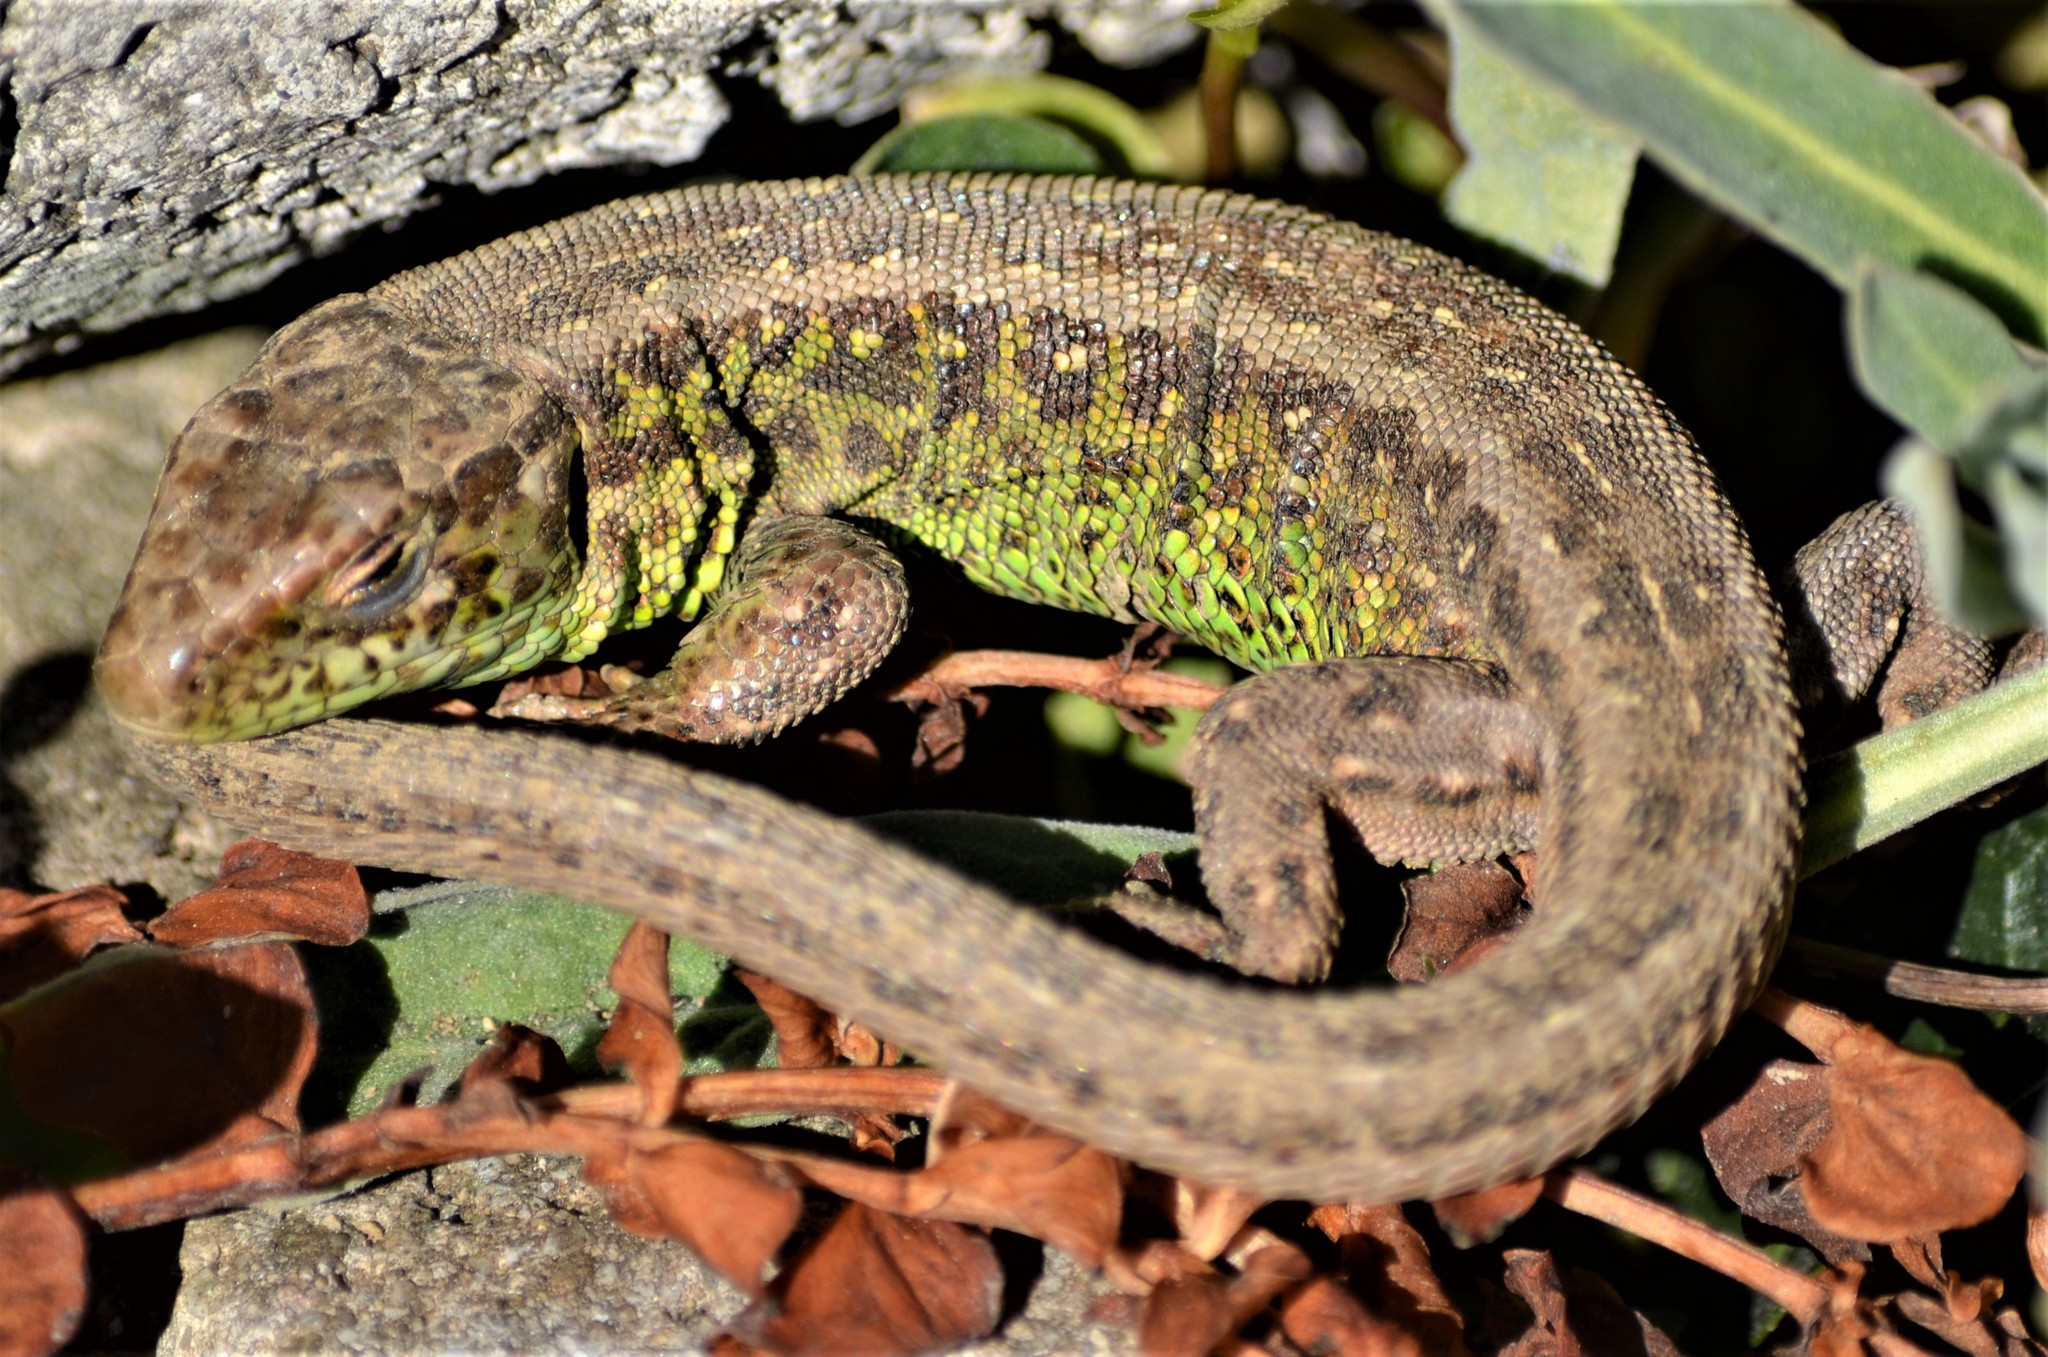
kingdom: Animalia
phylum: Chordata
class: Squamata
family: Lacertidae
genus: Lacerta
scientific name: Lacerta agilis
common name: Sand lizard
